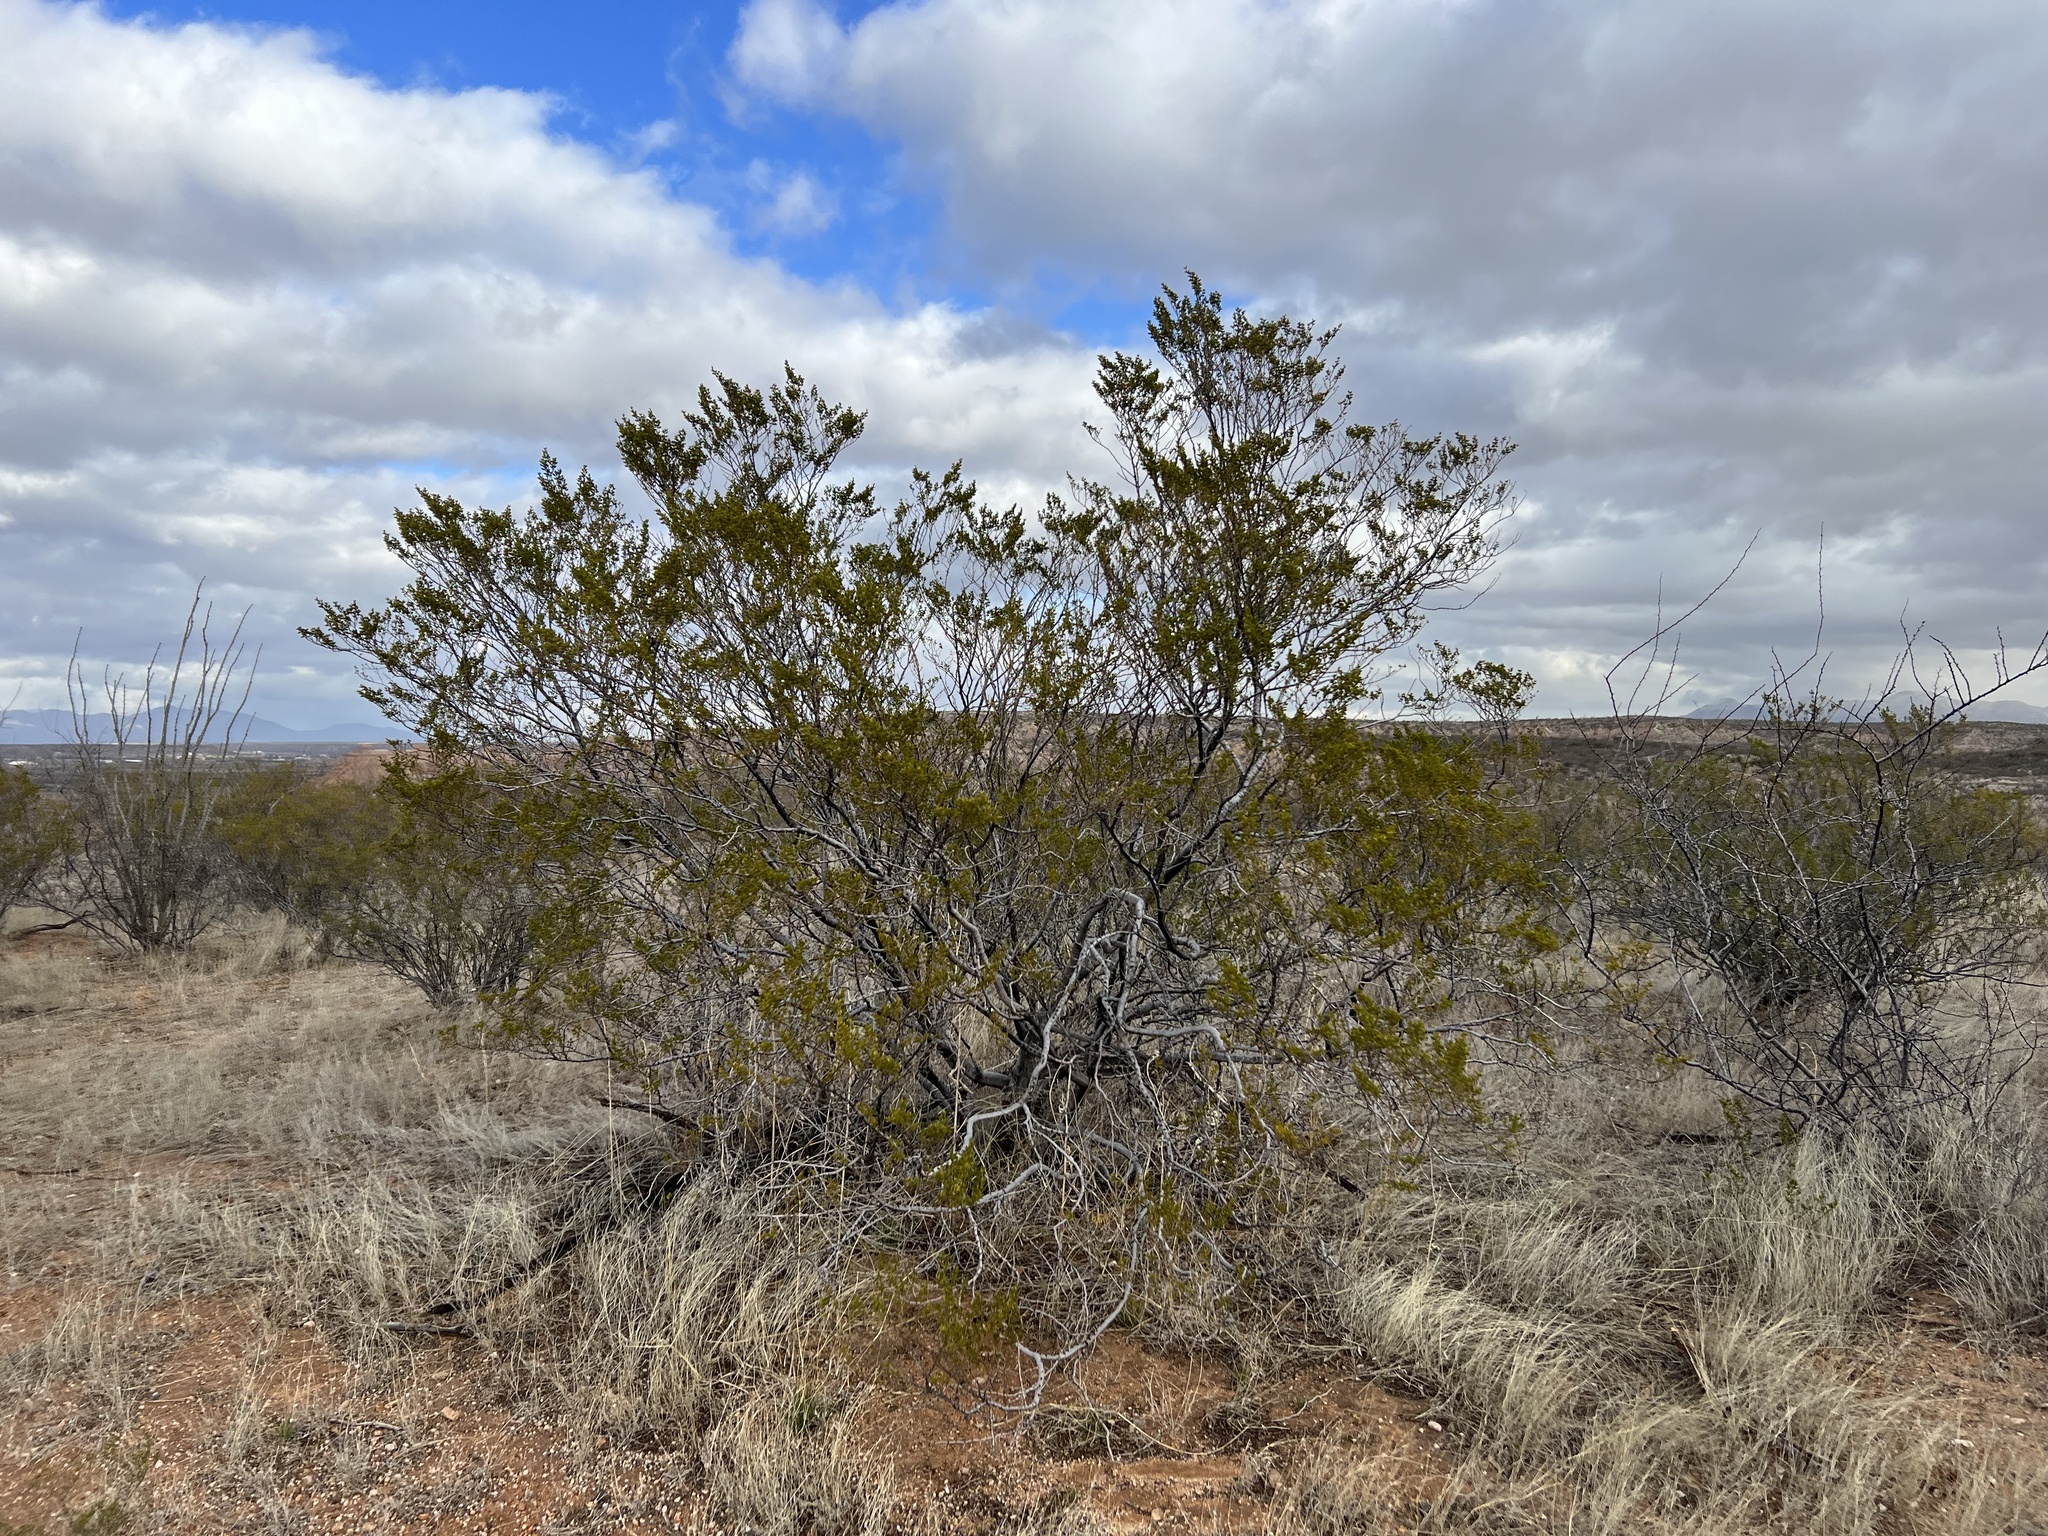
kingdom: Plantae
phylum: Tracheophyta
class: Magnoliopsida
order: Zygophyllales
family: Zygophyllaceae
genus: Larrea
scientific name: Larrea tridentata
